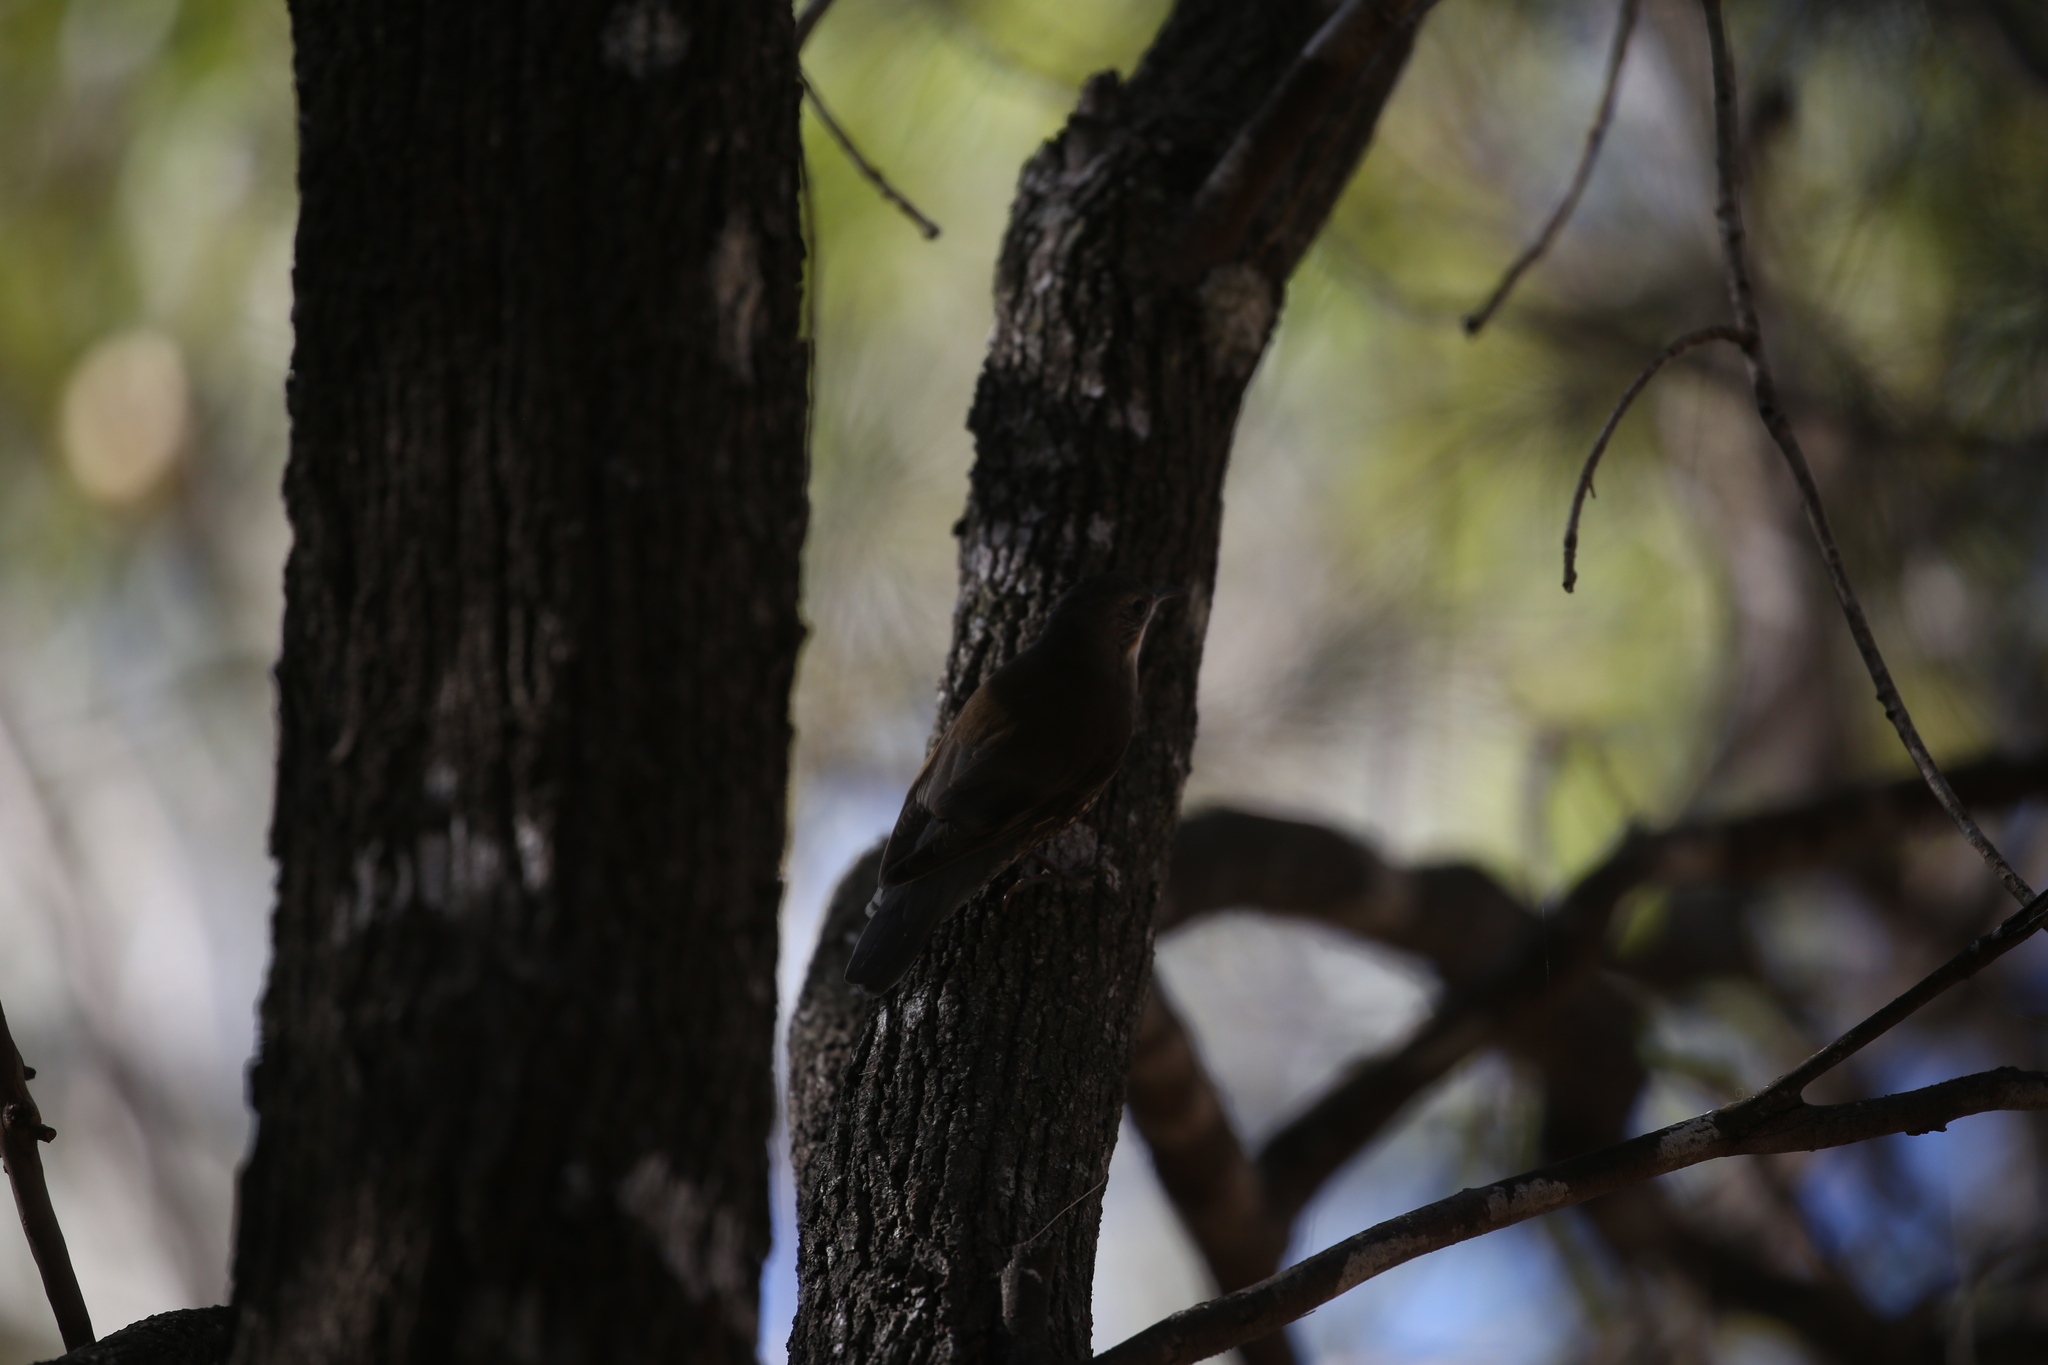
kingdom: Animalia
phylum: Chordata
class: Aves
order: Passeriformes
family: Climacteridae
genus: Cormobates
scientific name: Cormobates leucophaea
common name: White-throated treecreeper
